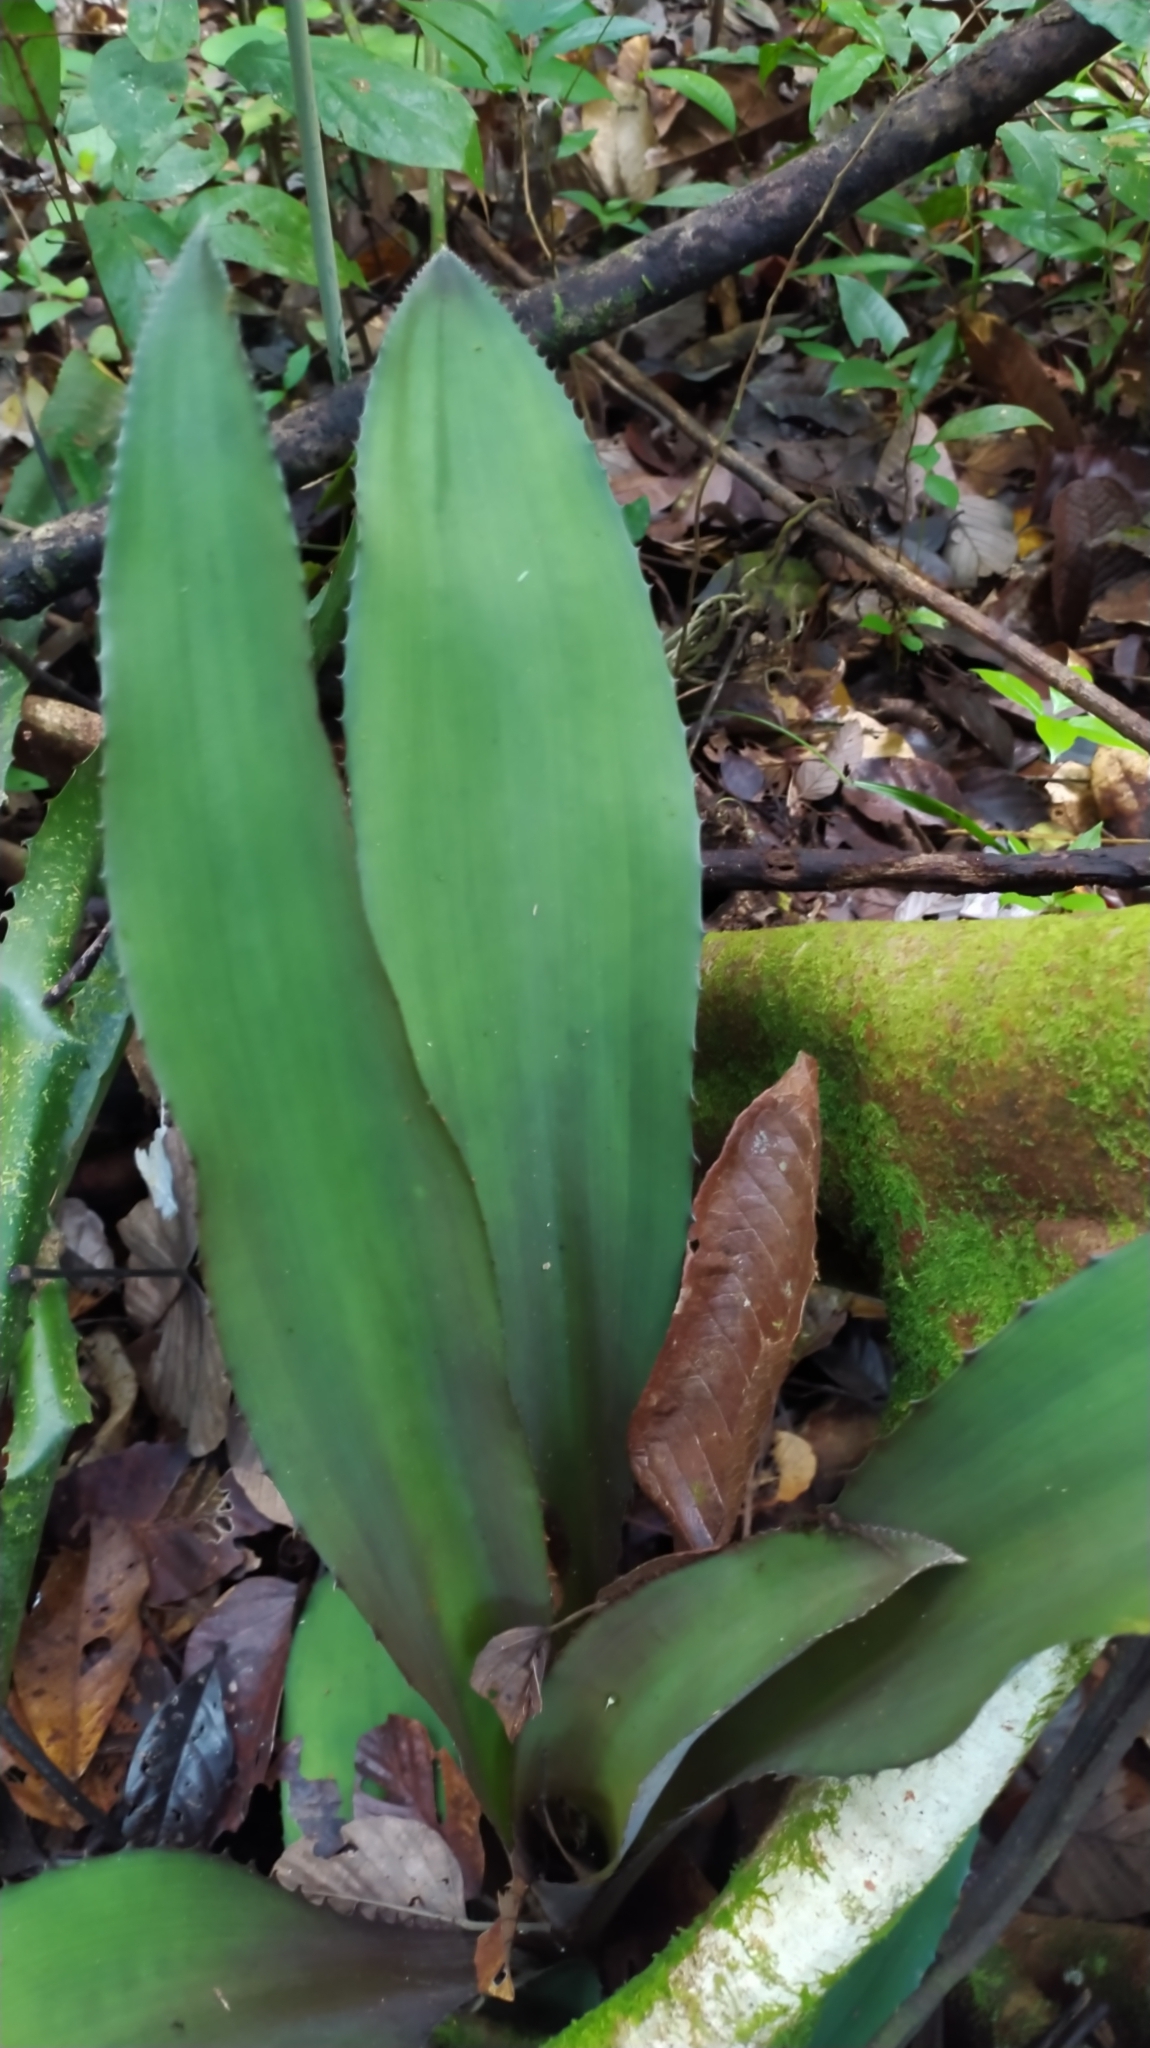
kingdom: Plantae
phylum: Tracheophyta
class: Liliopsida
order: Poales
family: Bromeliaceae
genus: Disteganthus
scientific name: Disteganthus gracieae
